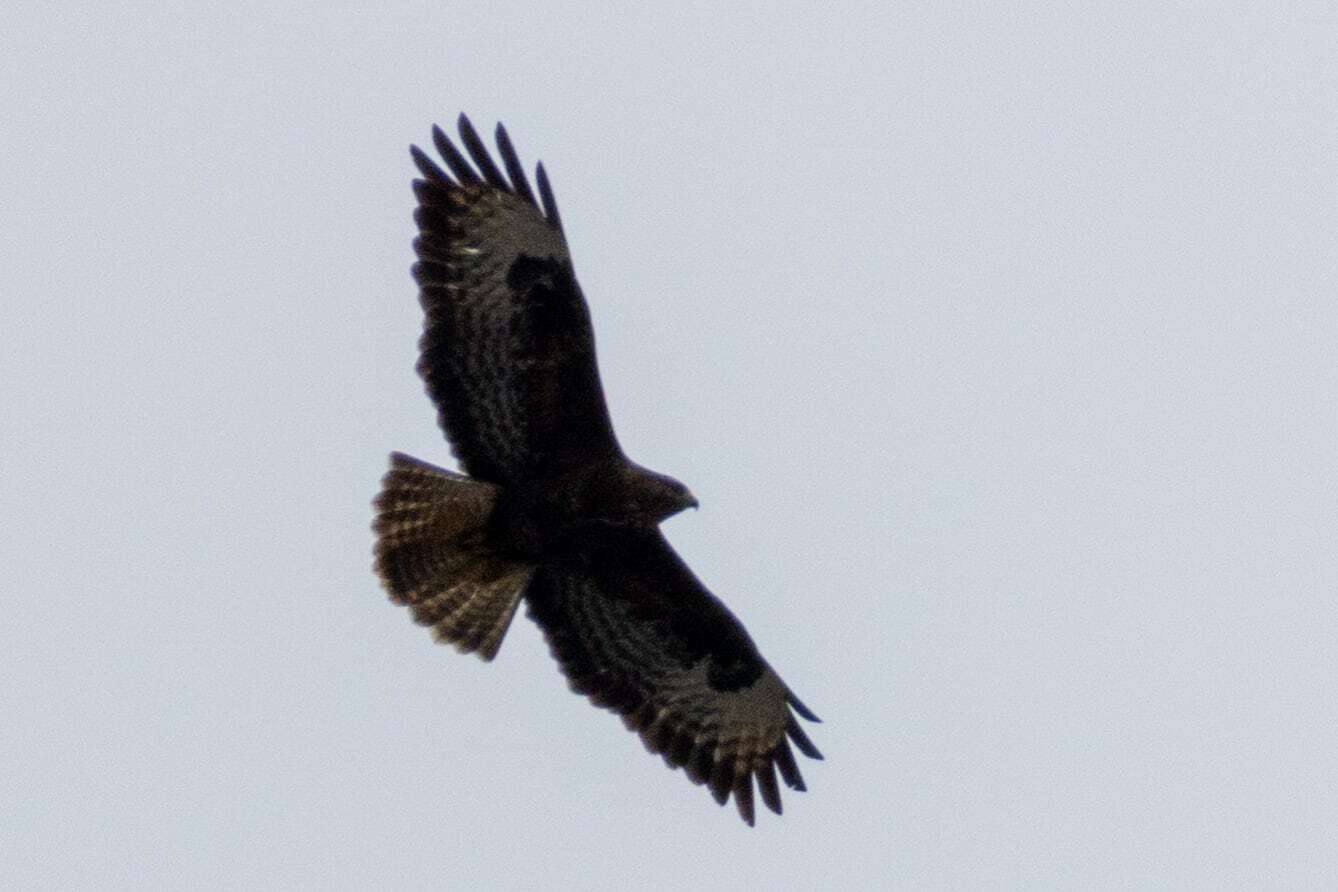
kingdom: Animalia
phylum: Chordata
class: Aves
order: Accipitriformes
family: Accipitridae
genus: Buteo
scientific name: Buteo buteo
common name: Common buzzard
